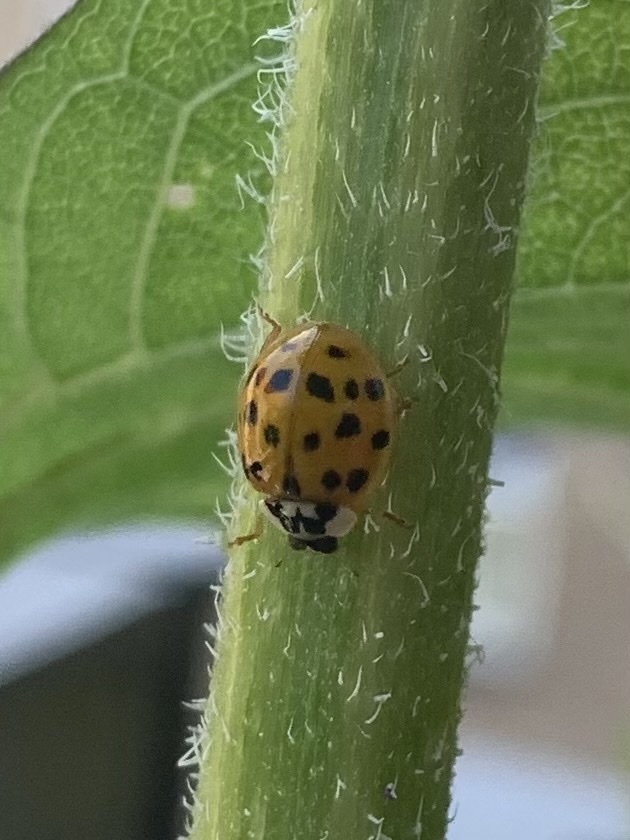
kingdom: Animalia
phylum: Arthropoda
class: Insecta
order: Coleoptera
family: Coccinellidae
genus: Harmonia
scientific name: Harmonia axyridis
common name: Harlequin ladybird
